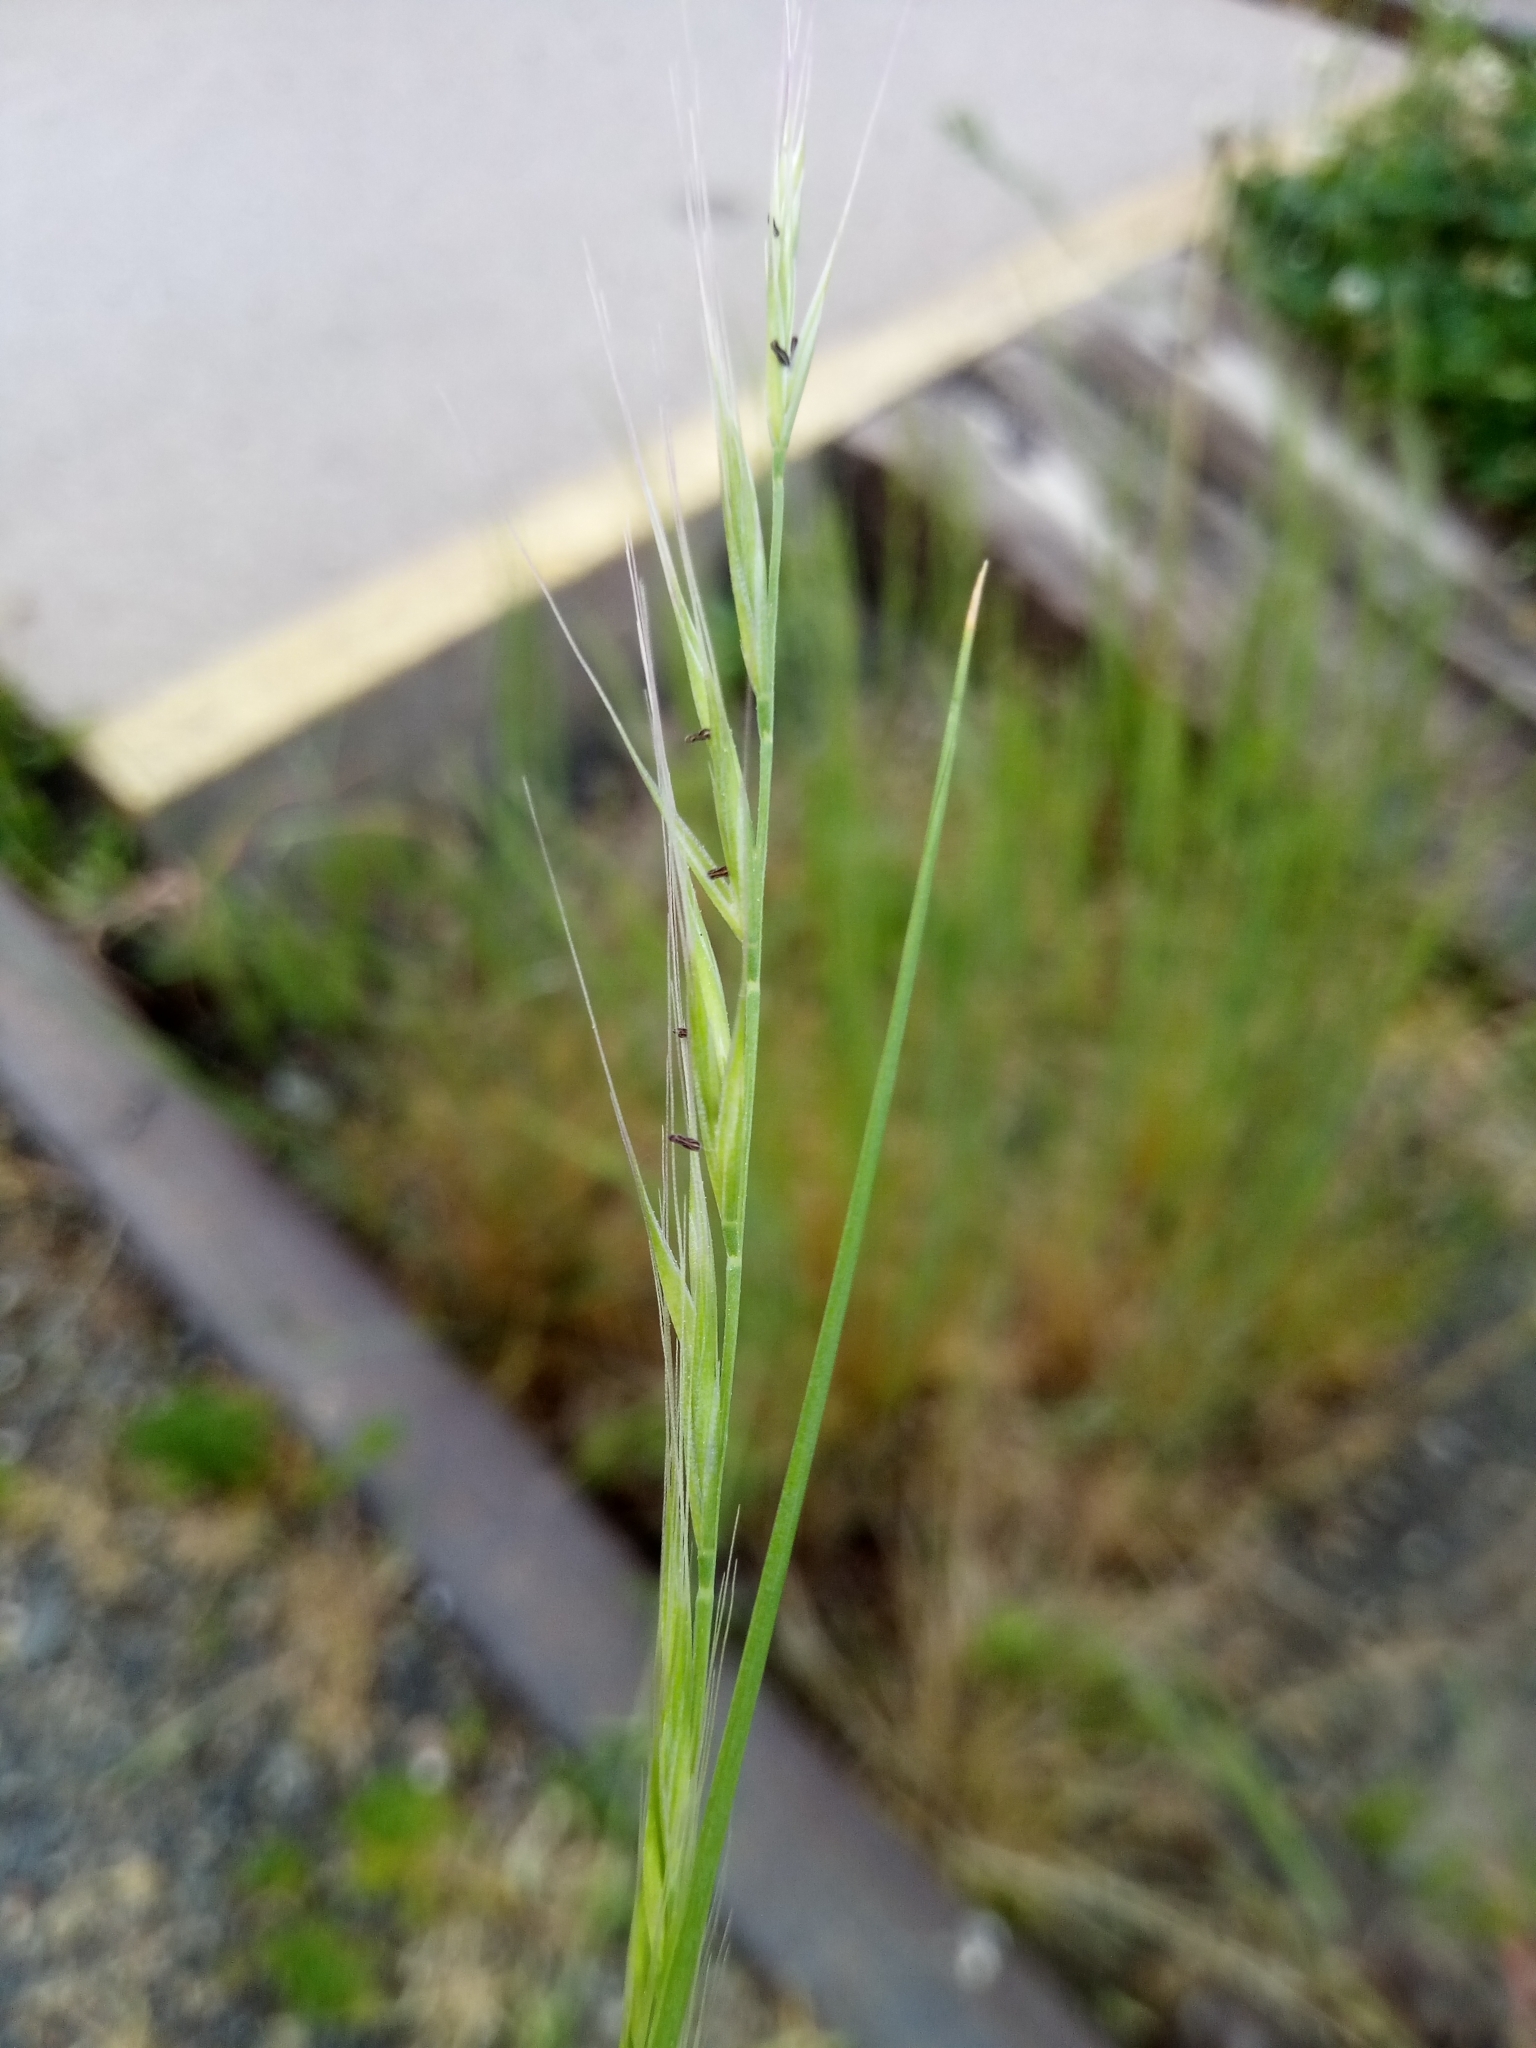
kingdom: Plantae
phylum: Tracheophyta
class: Liliopsida
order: Poales
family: Poaceae
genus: Festuca
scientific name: Festuca myuros
